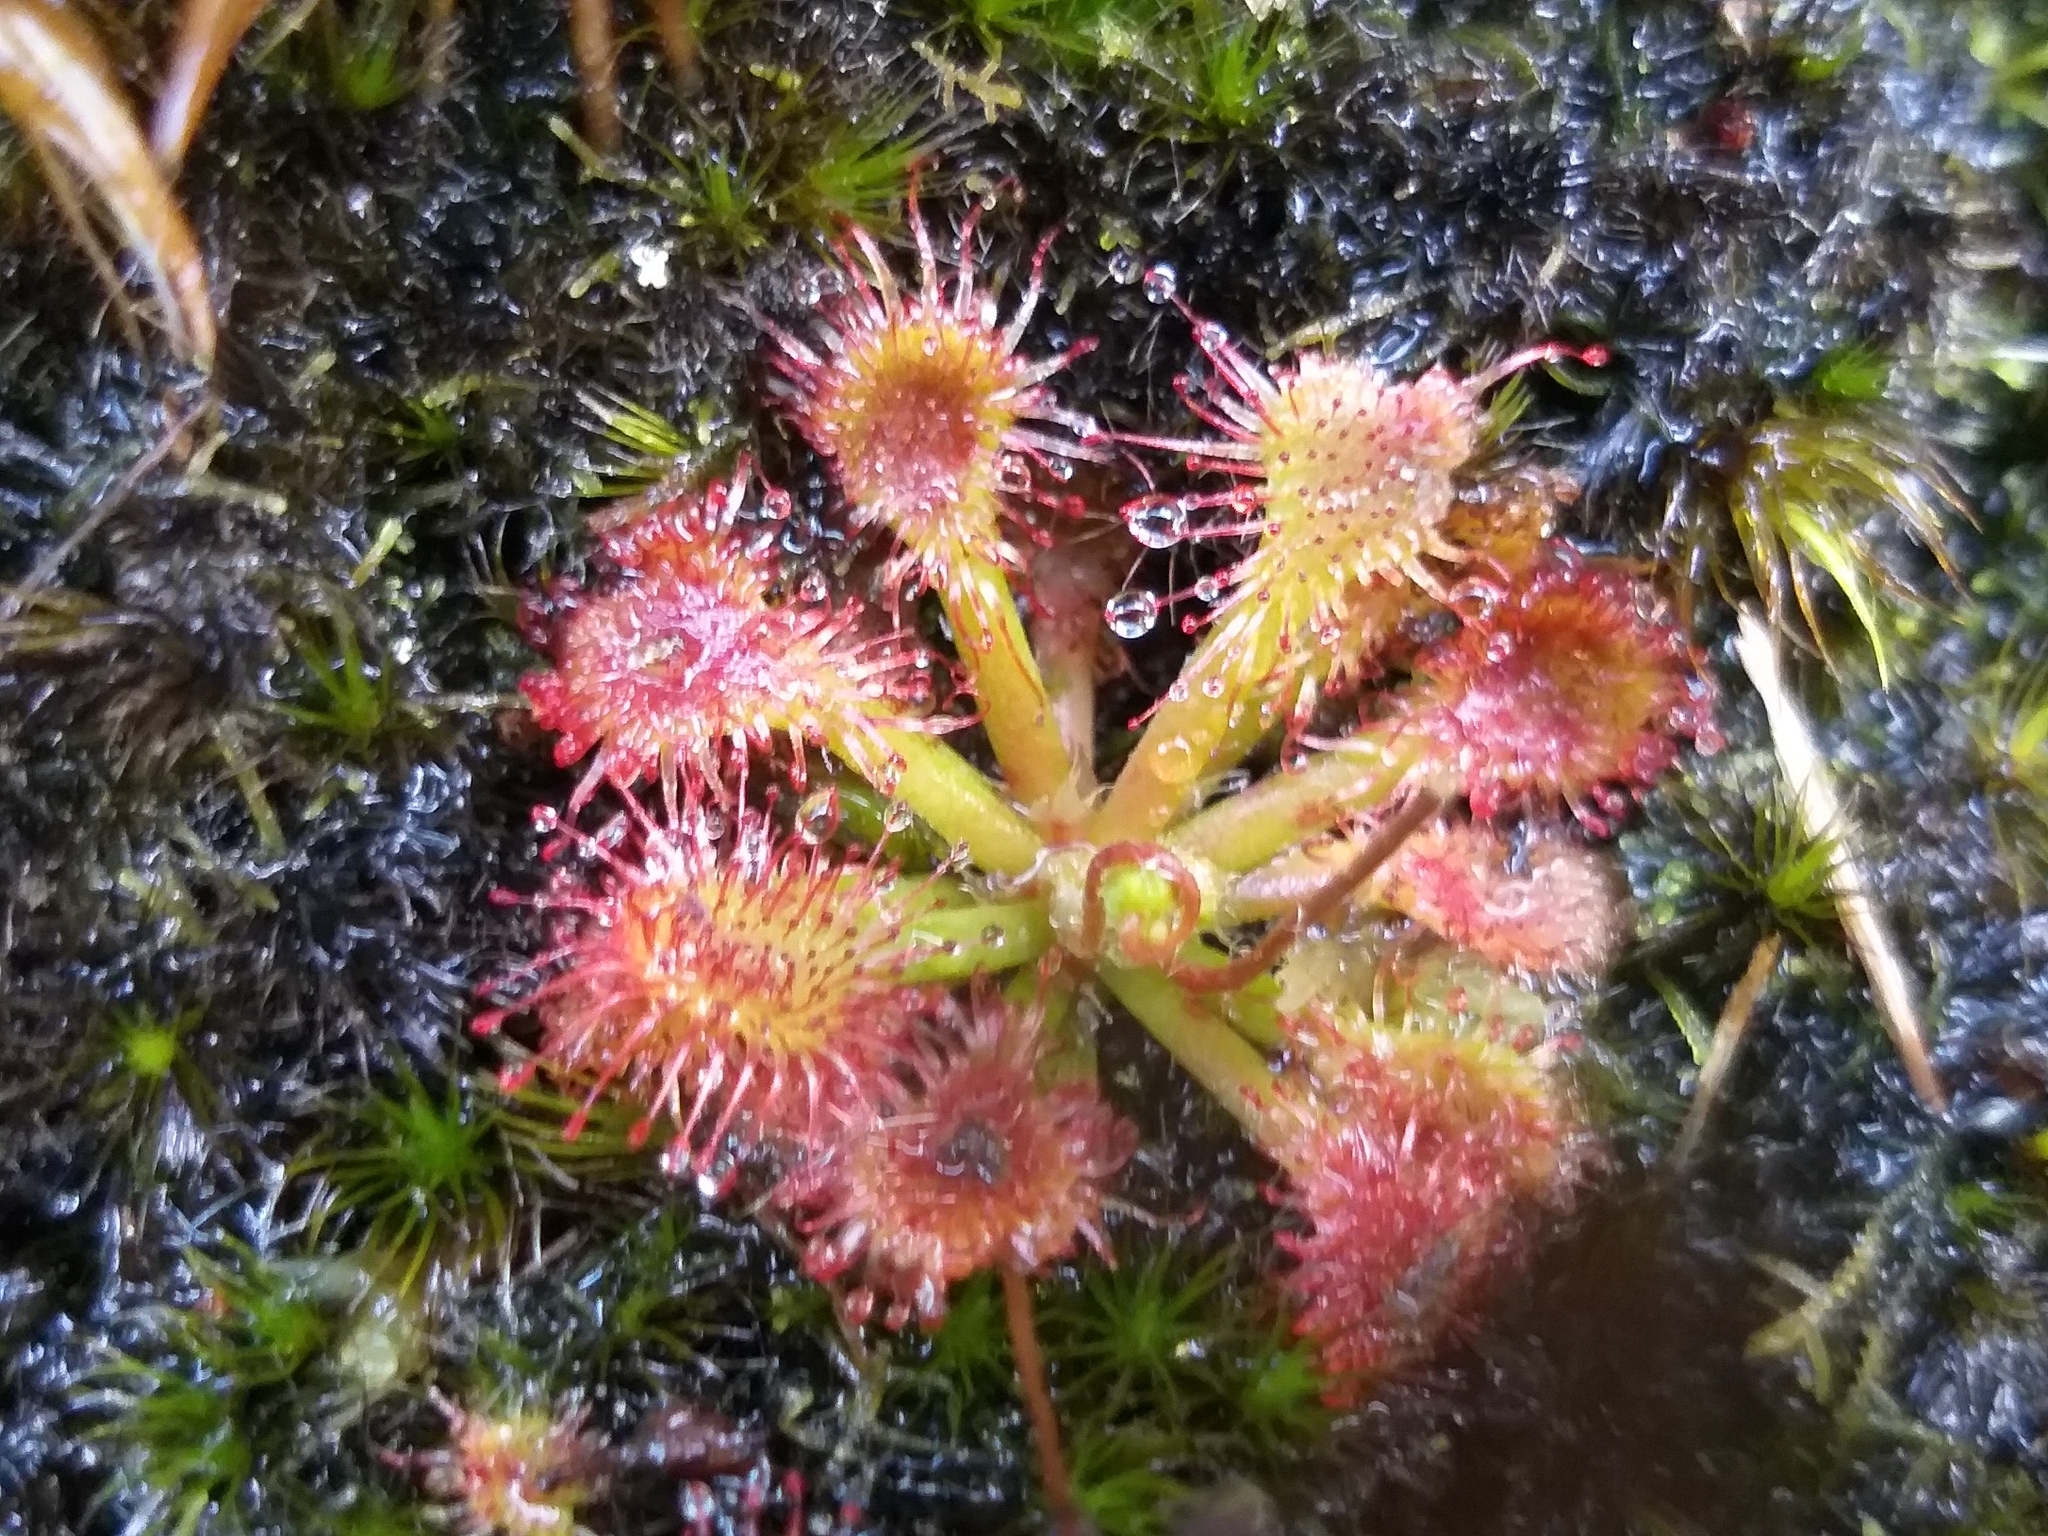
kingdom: Plantae
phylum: Tracheophyta
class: Magnoliopsida
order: Caryophyllales
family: Droseraceae
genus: Drosera
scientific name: Drosera spatulata
